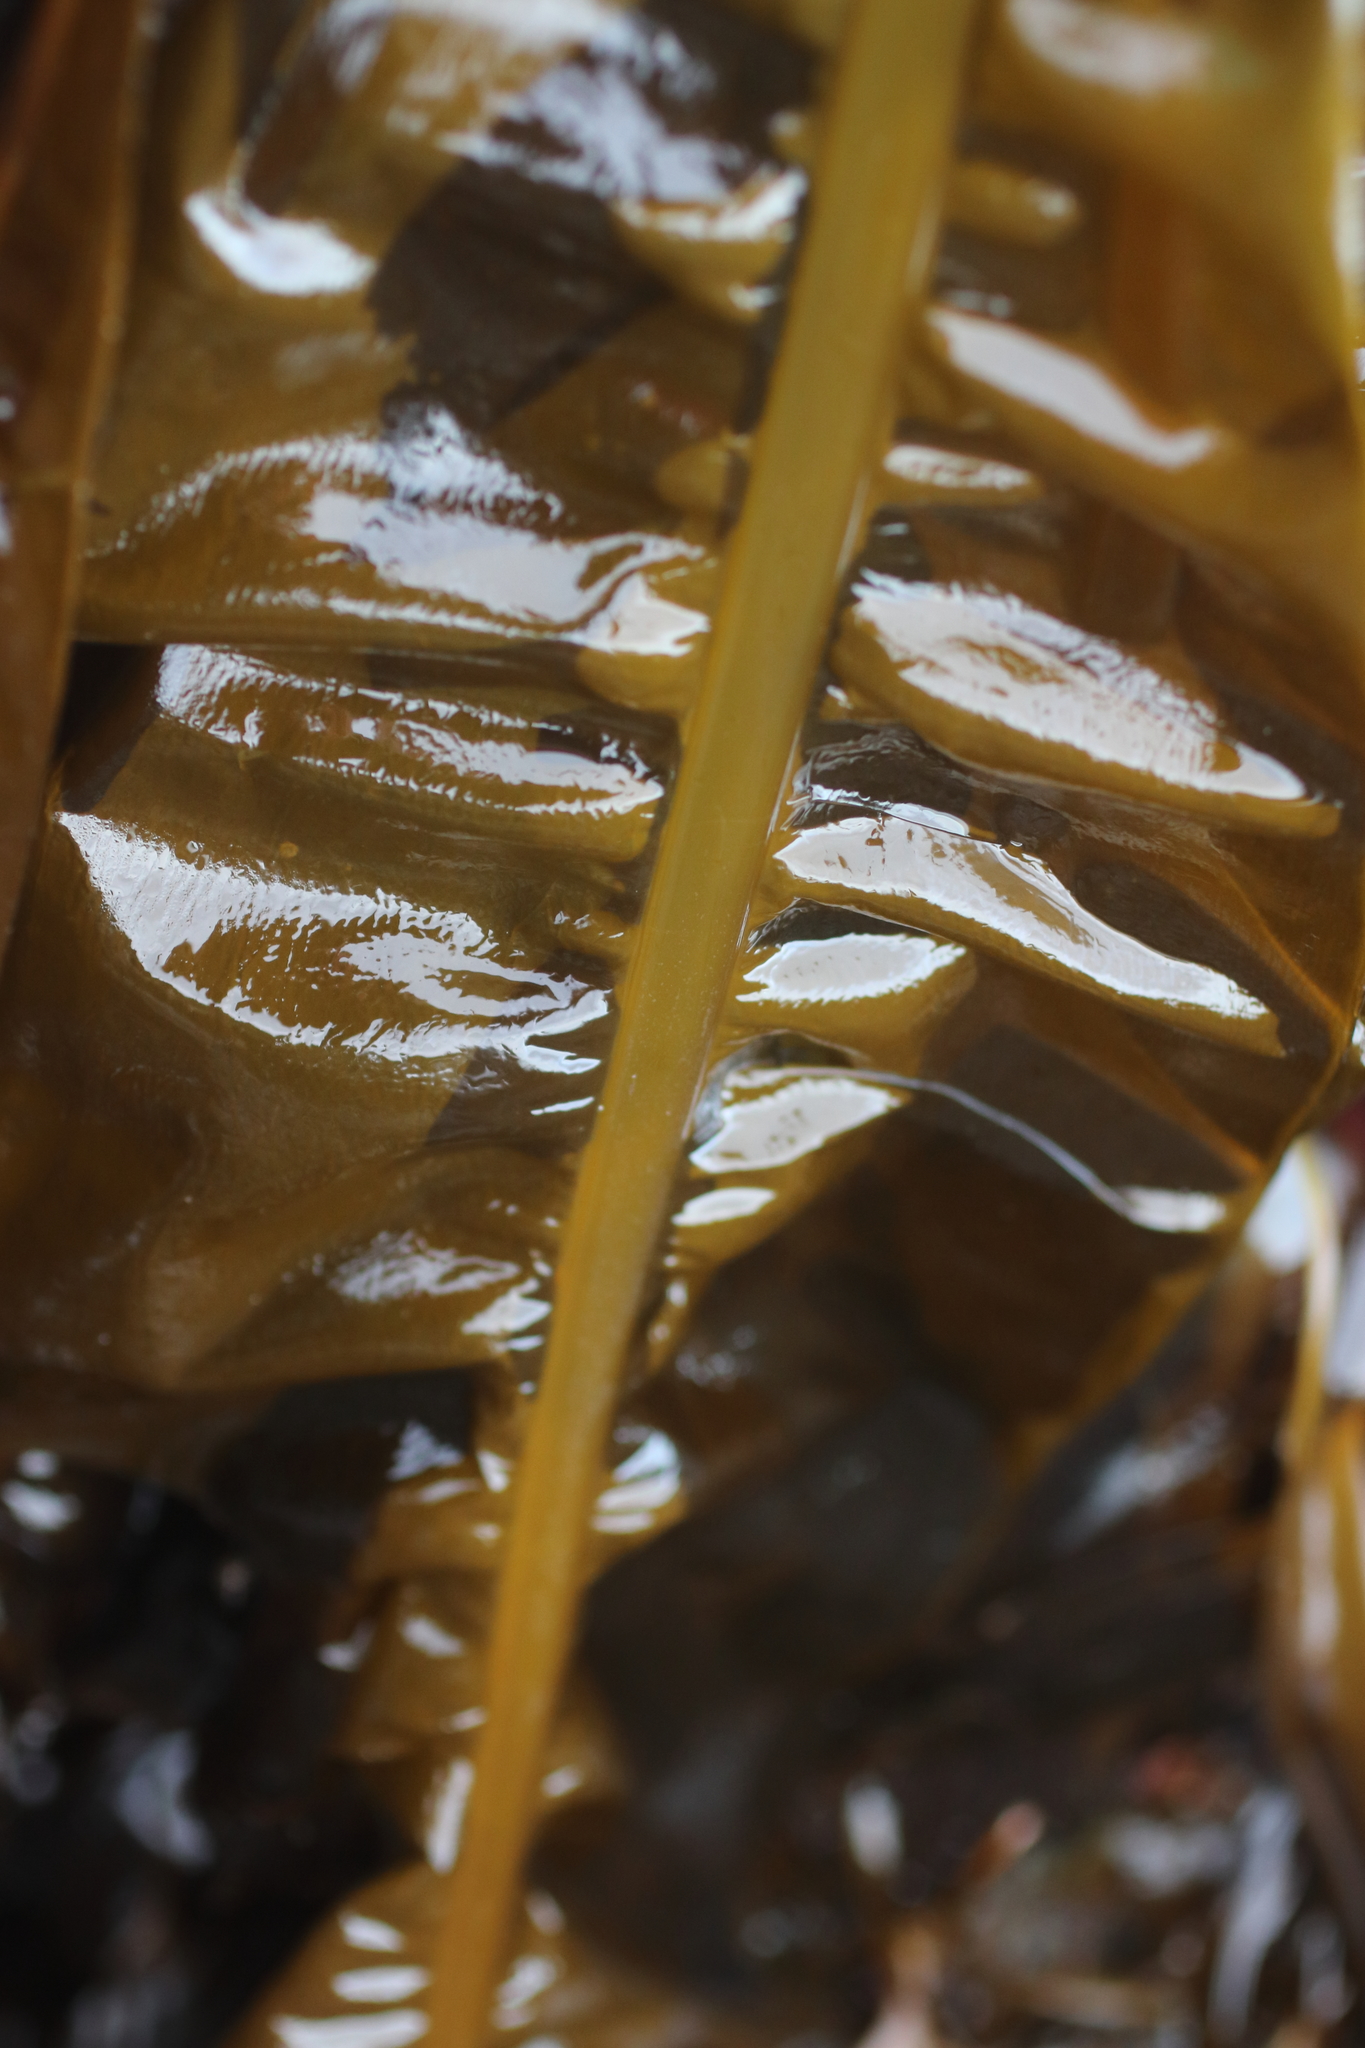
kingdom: Chromista
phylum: Ochrophyta
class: Phaeophyceae
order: Laminariales
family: Alariaceae
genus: Alaria
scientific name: Alaria marginata
